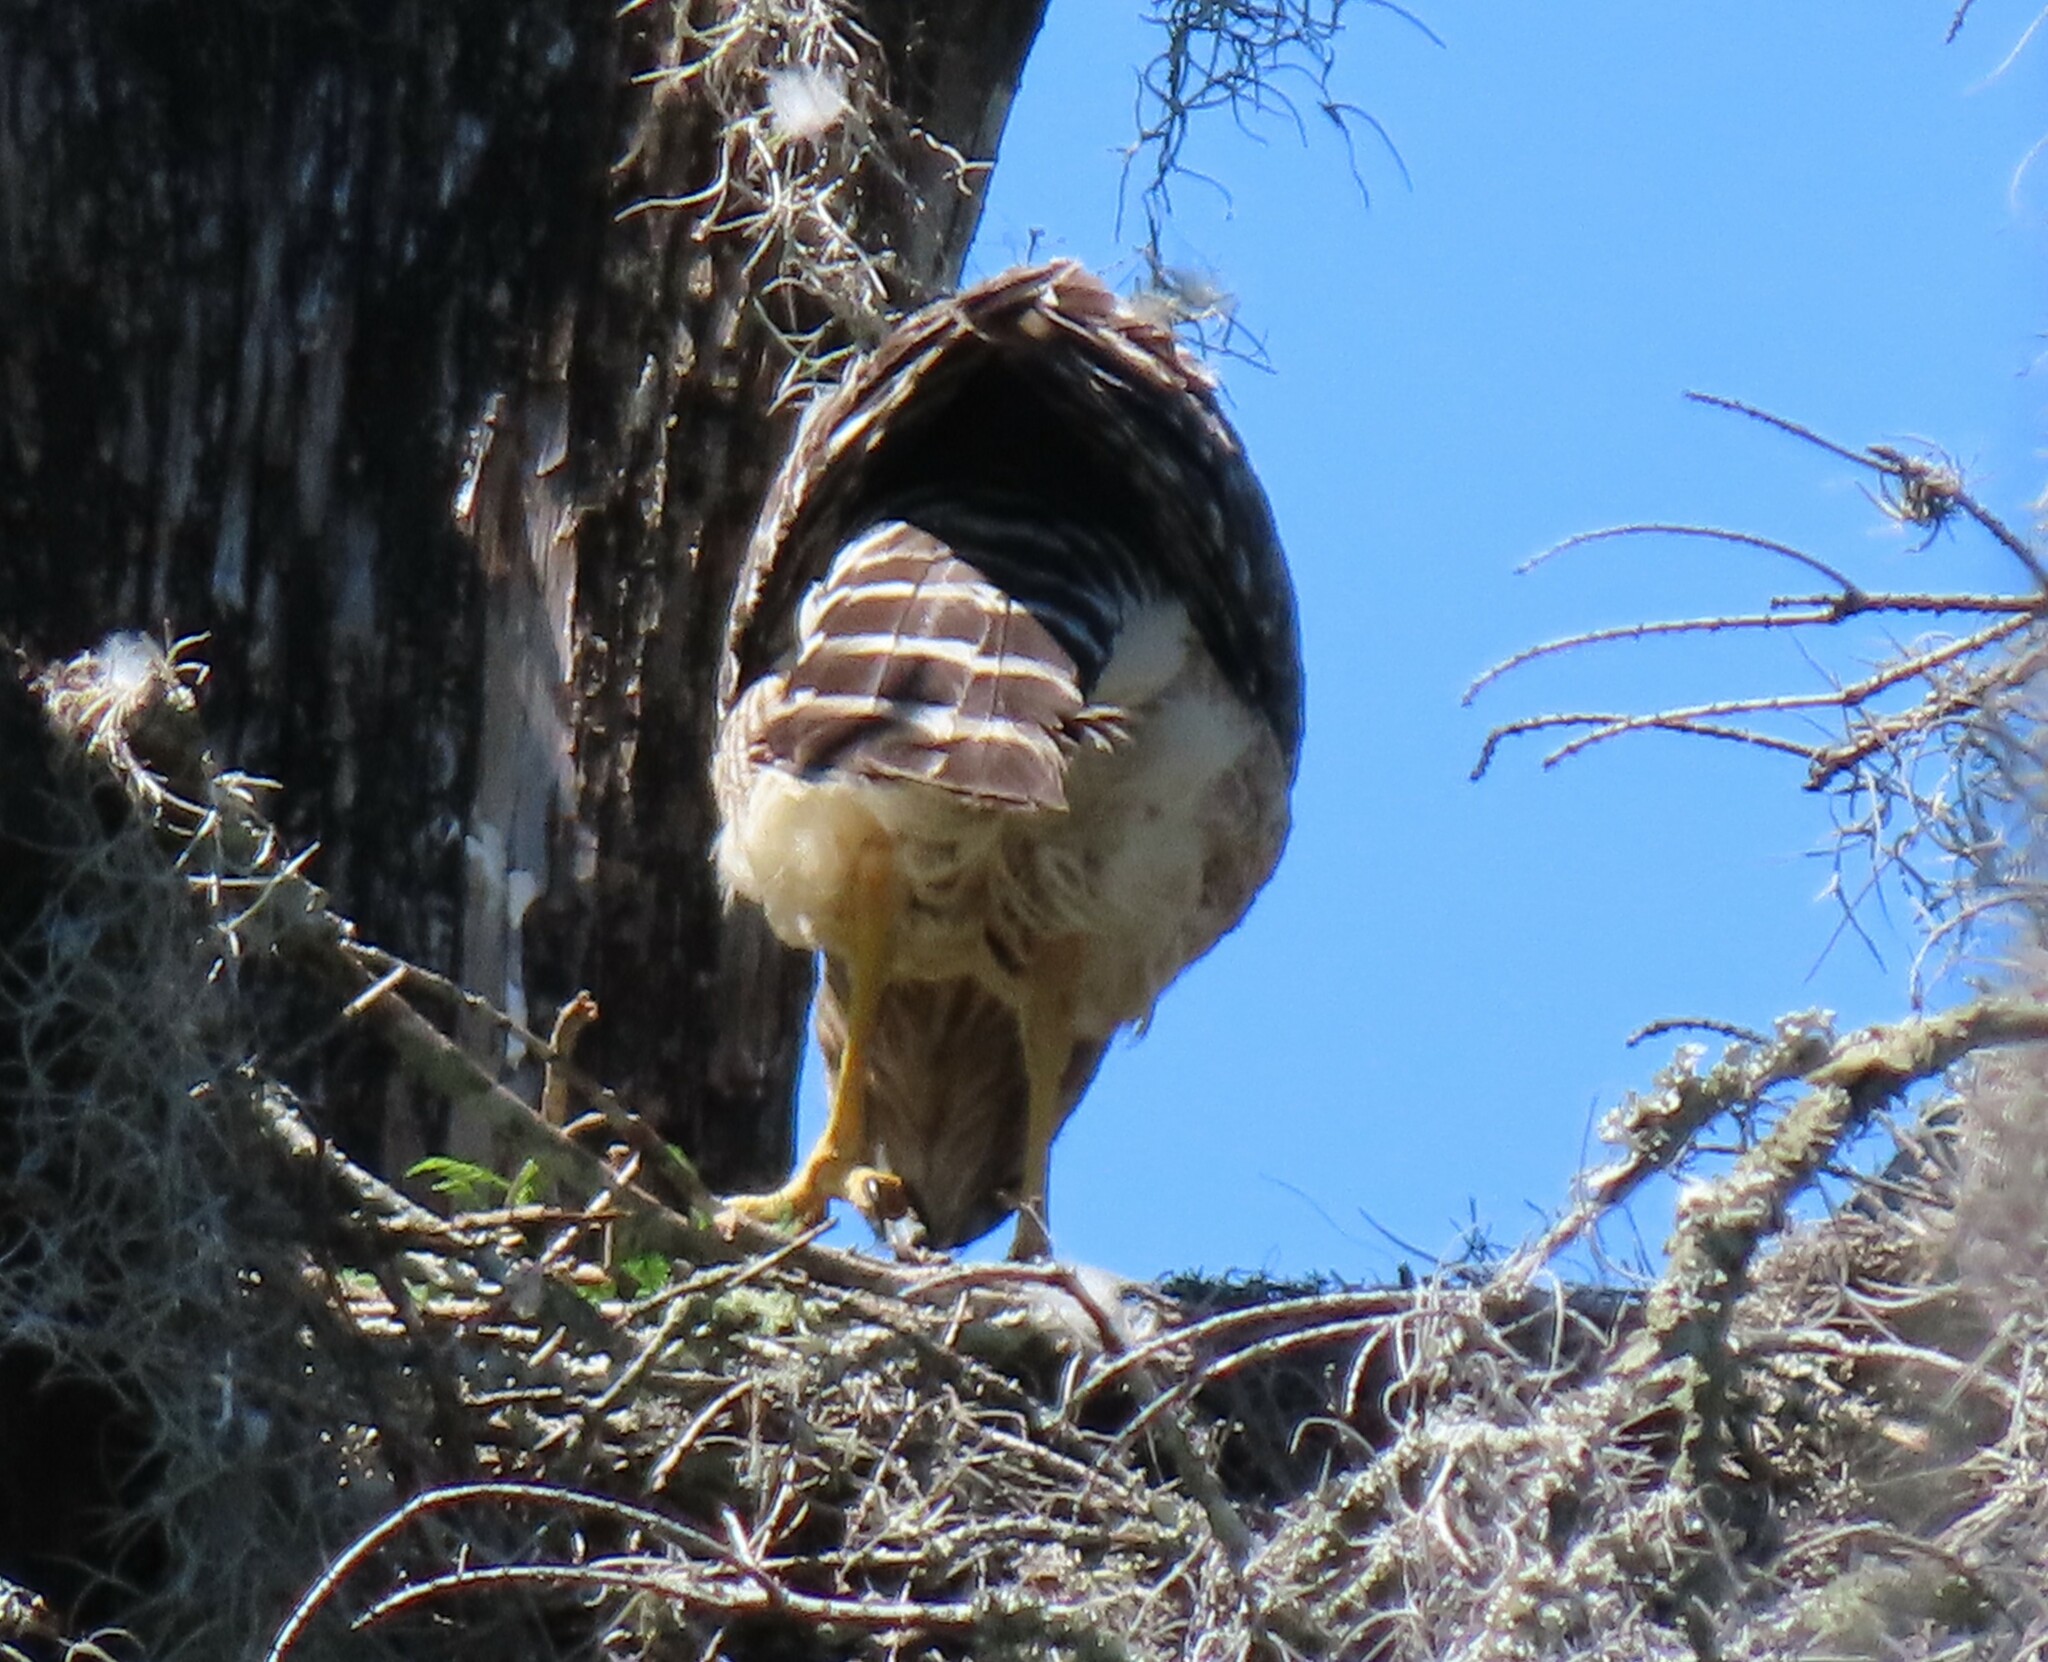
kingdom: Animalia
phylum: Chordata
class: Aves
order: Accipitriformes
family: Accipitridae
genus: Buteo
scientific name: Buteo lineatus
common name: Red-shouldered hawk
